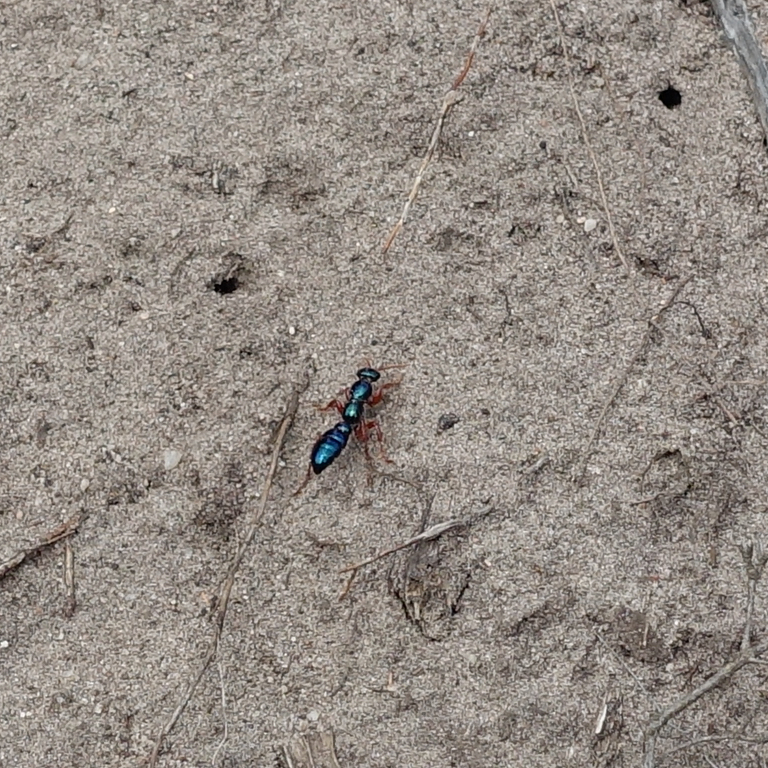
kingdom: Animalia
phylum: Arthropoda
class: Insecta
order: Hymenoptera
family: Tiphiidae
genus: Diamma
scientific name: Diamma
